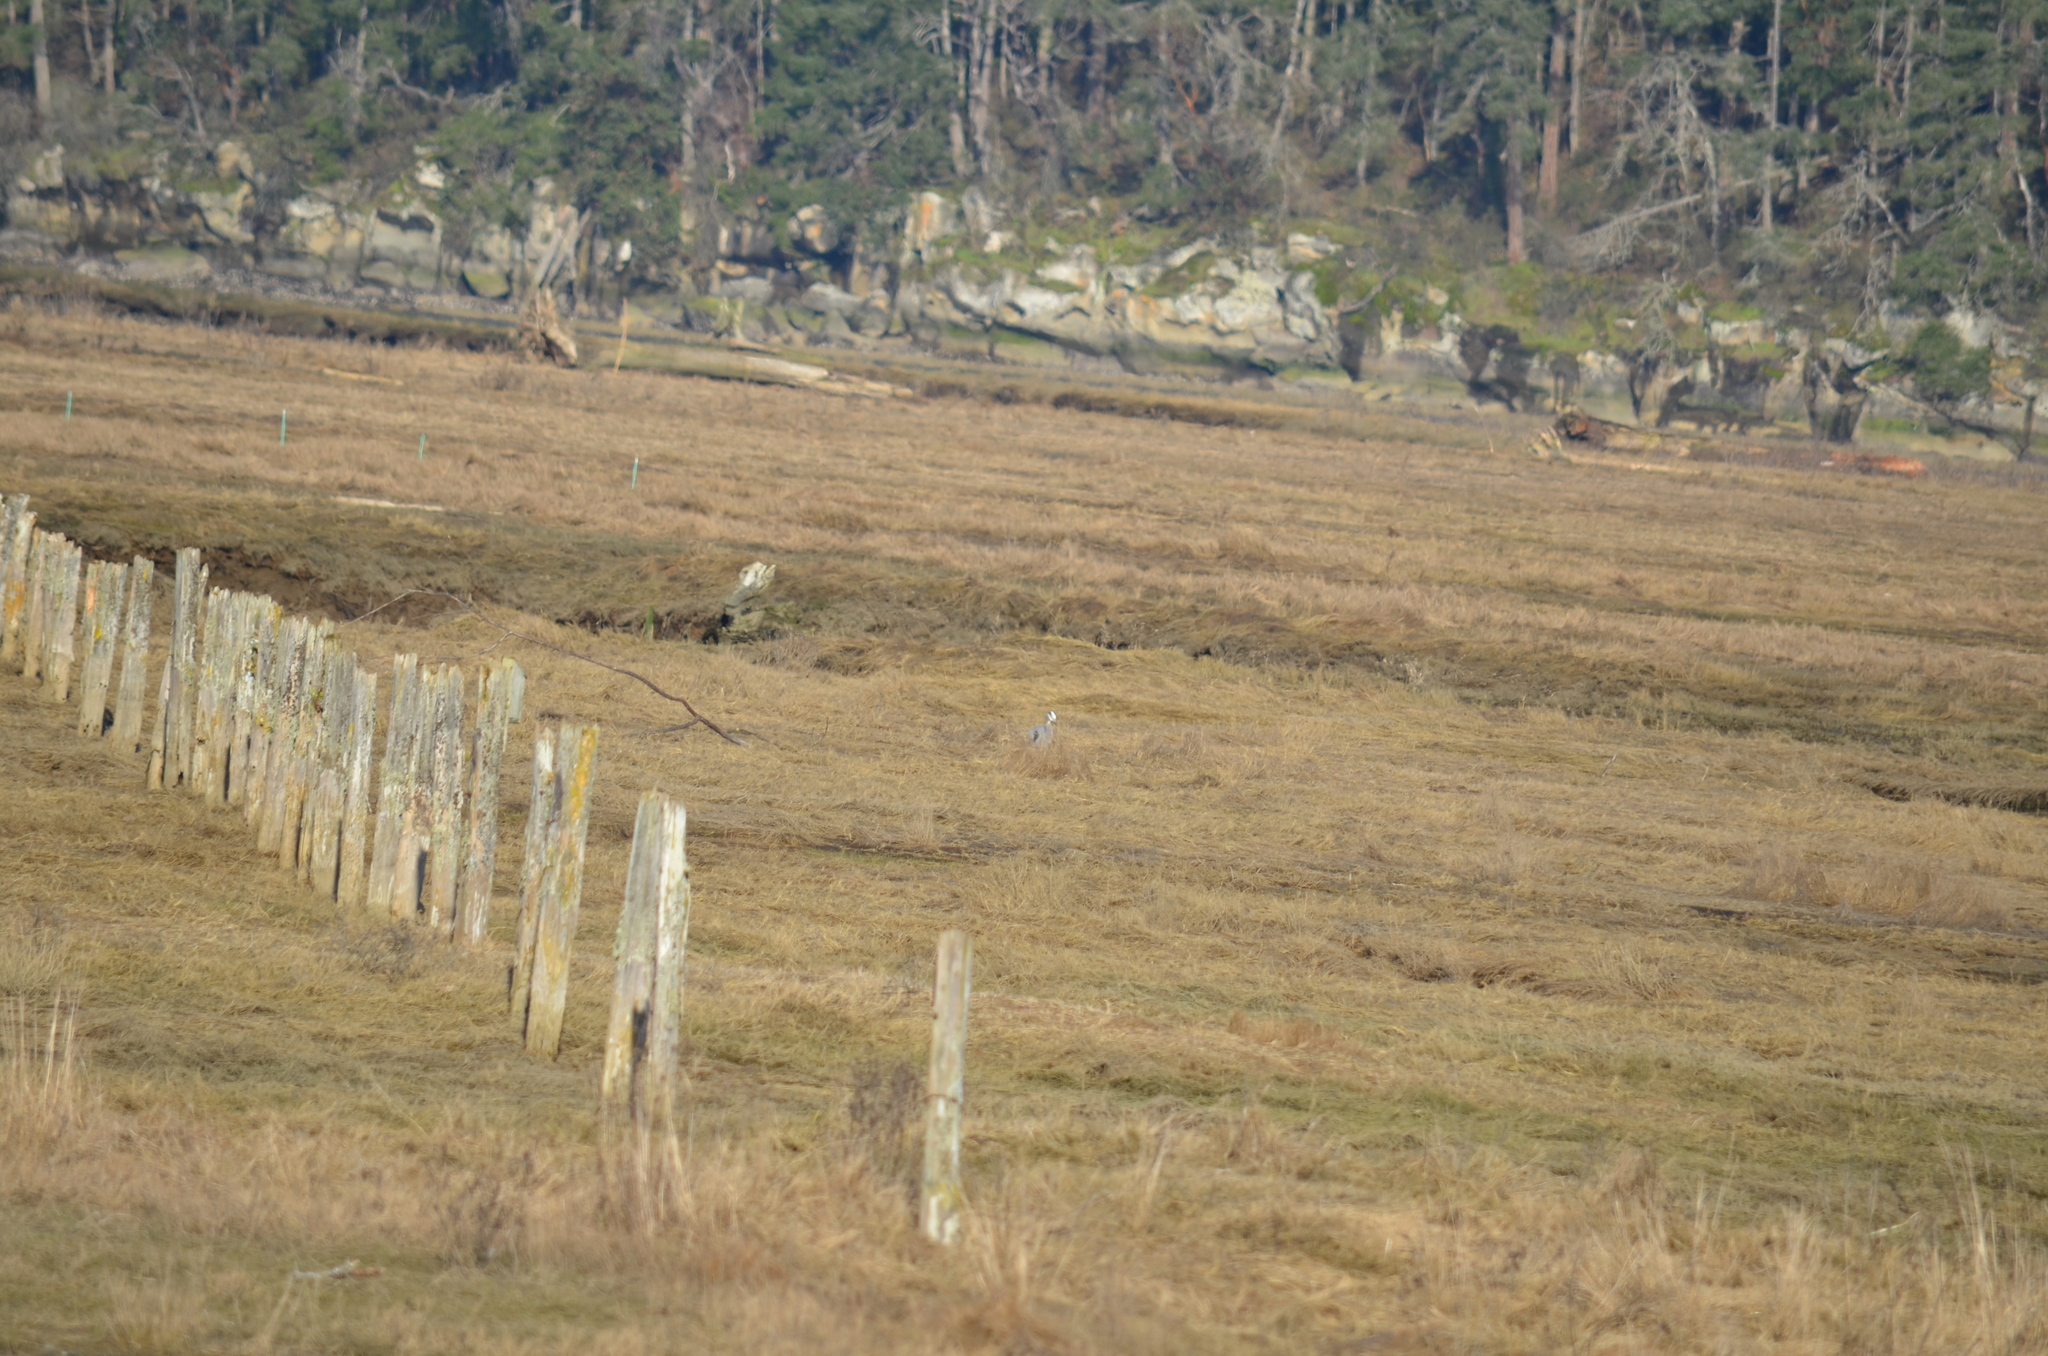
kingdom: Animalia
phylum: Chordata
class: Aves
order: Pelecaniformes
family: Ardeidae
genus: Ardea
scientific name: Ardea herodias
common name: Great blue heron
